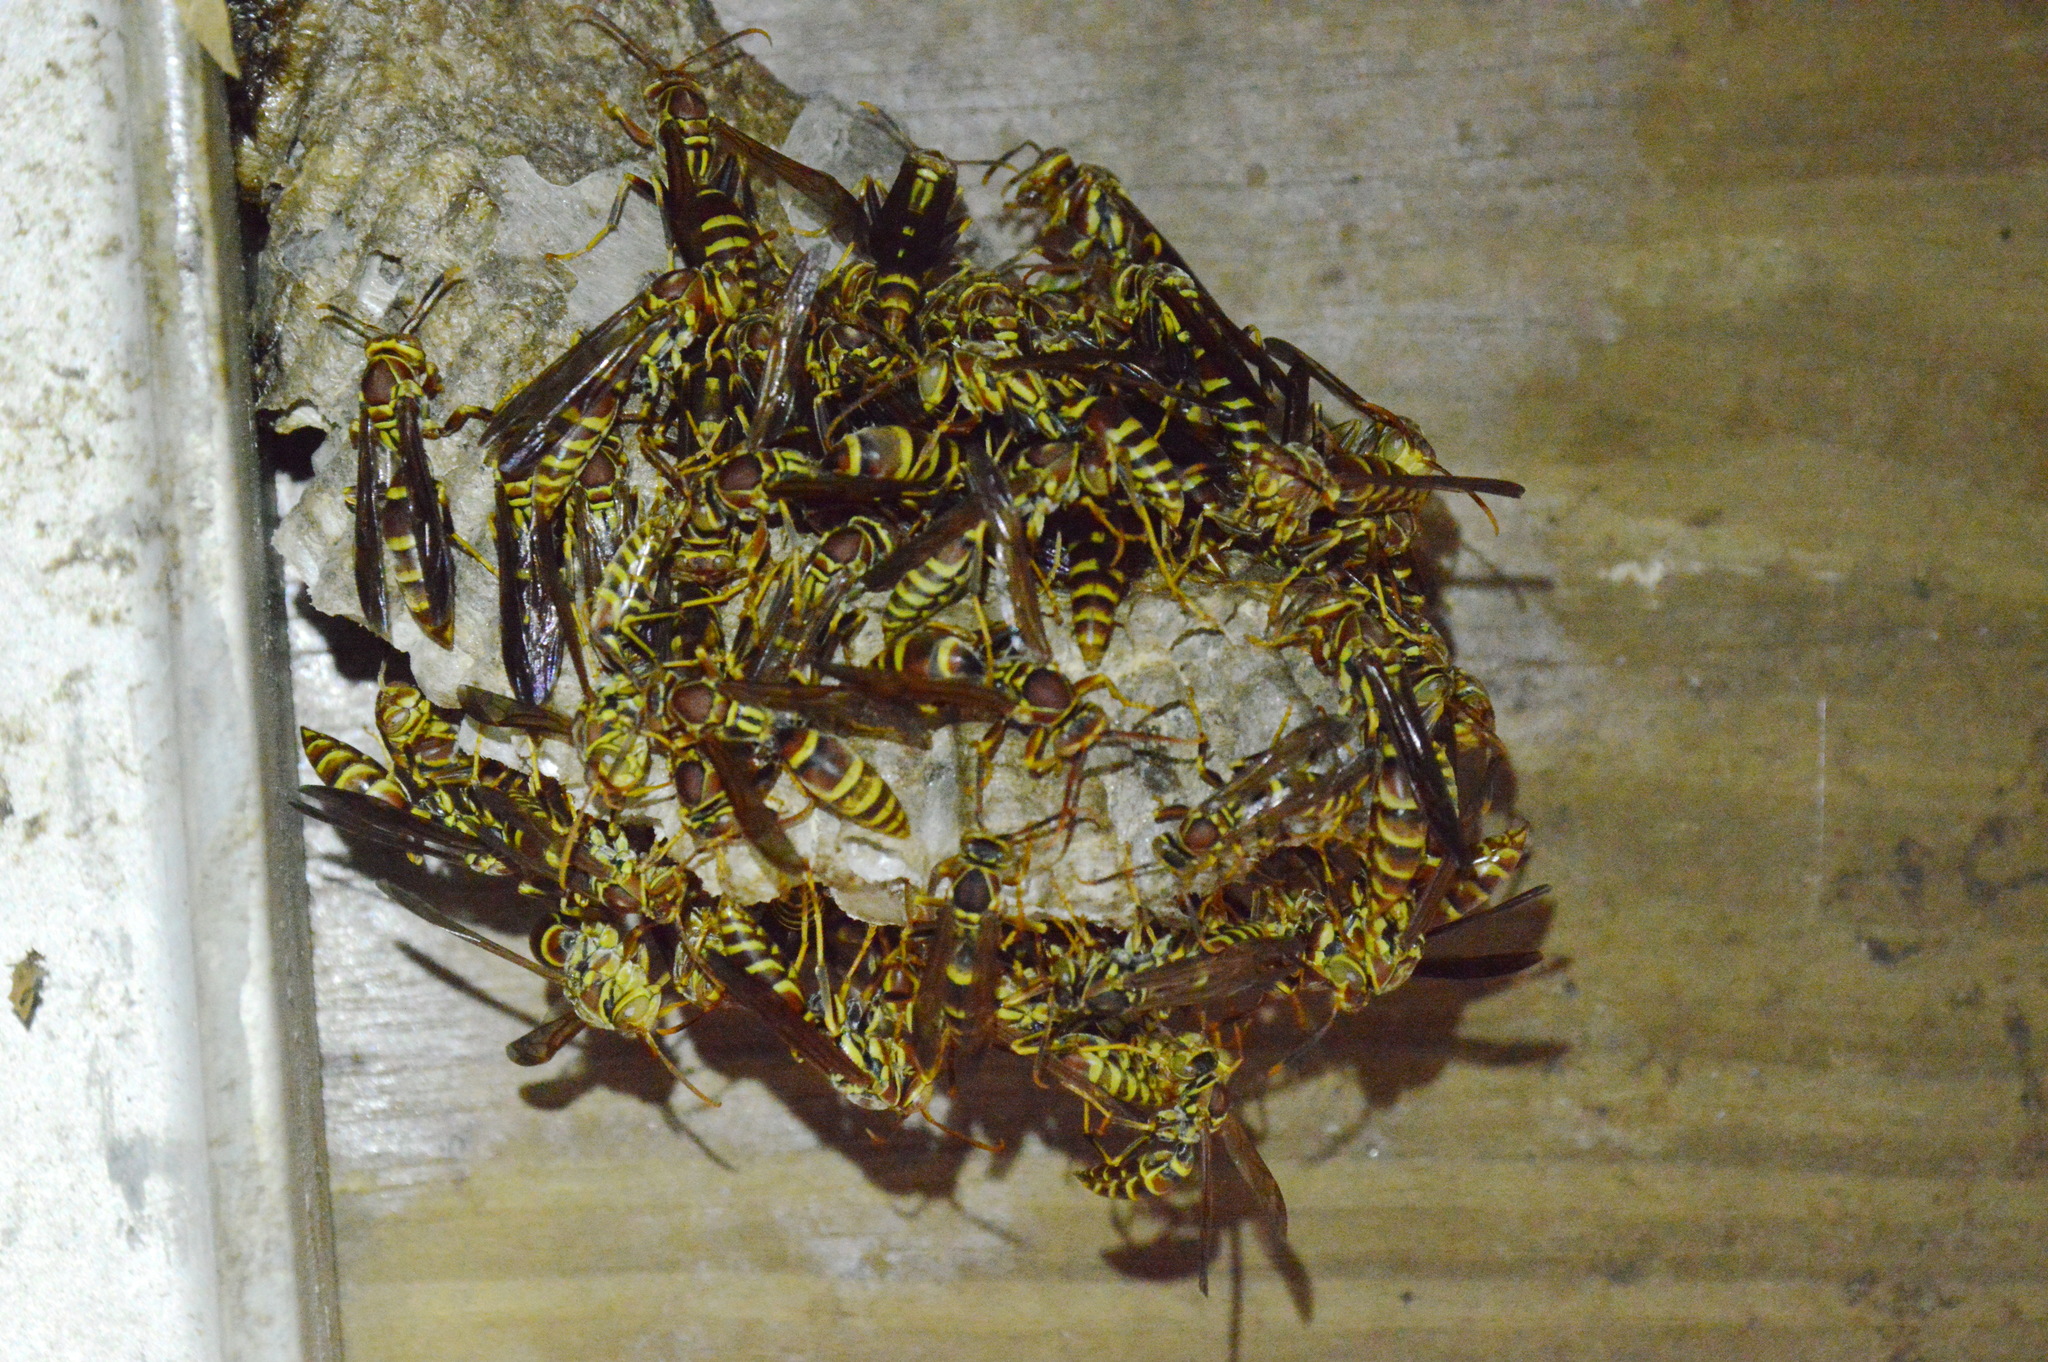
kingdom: Animalia
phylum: Arthropoda
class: Insecta
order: Hymenoptera
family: Eumenidae
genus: Polistes
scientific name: Polistes exclamans
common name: Paper wasp
